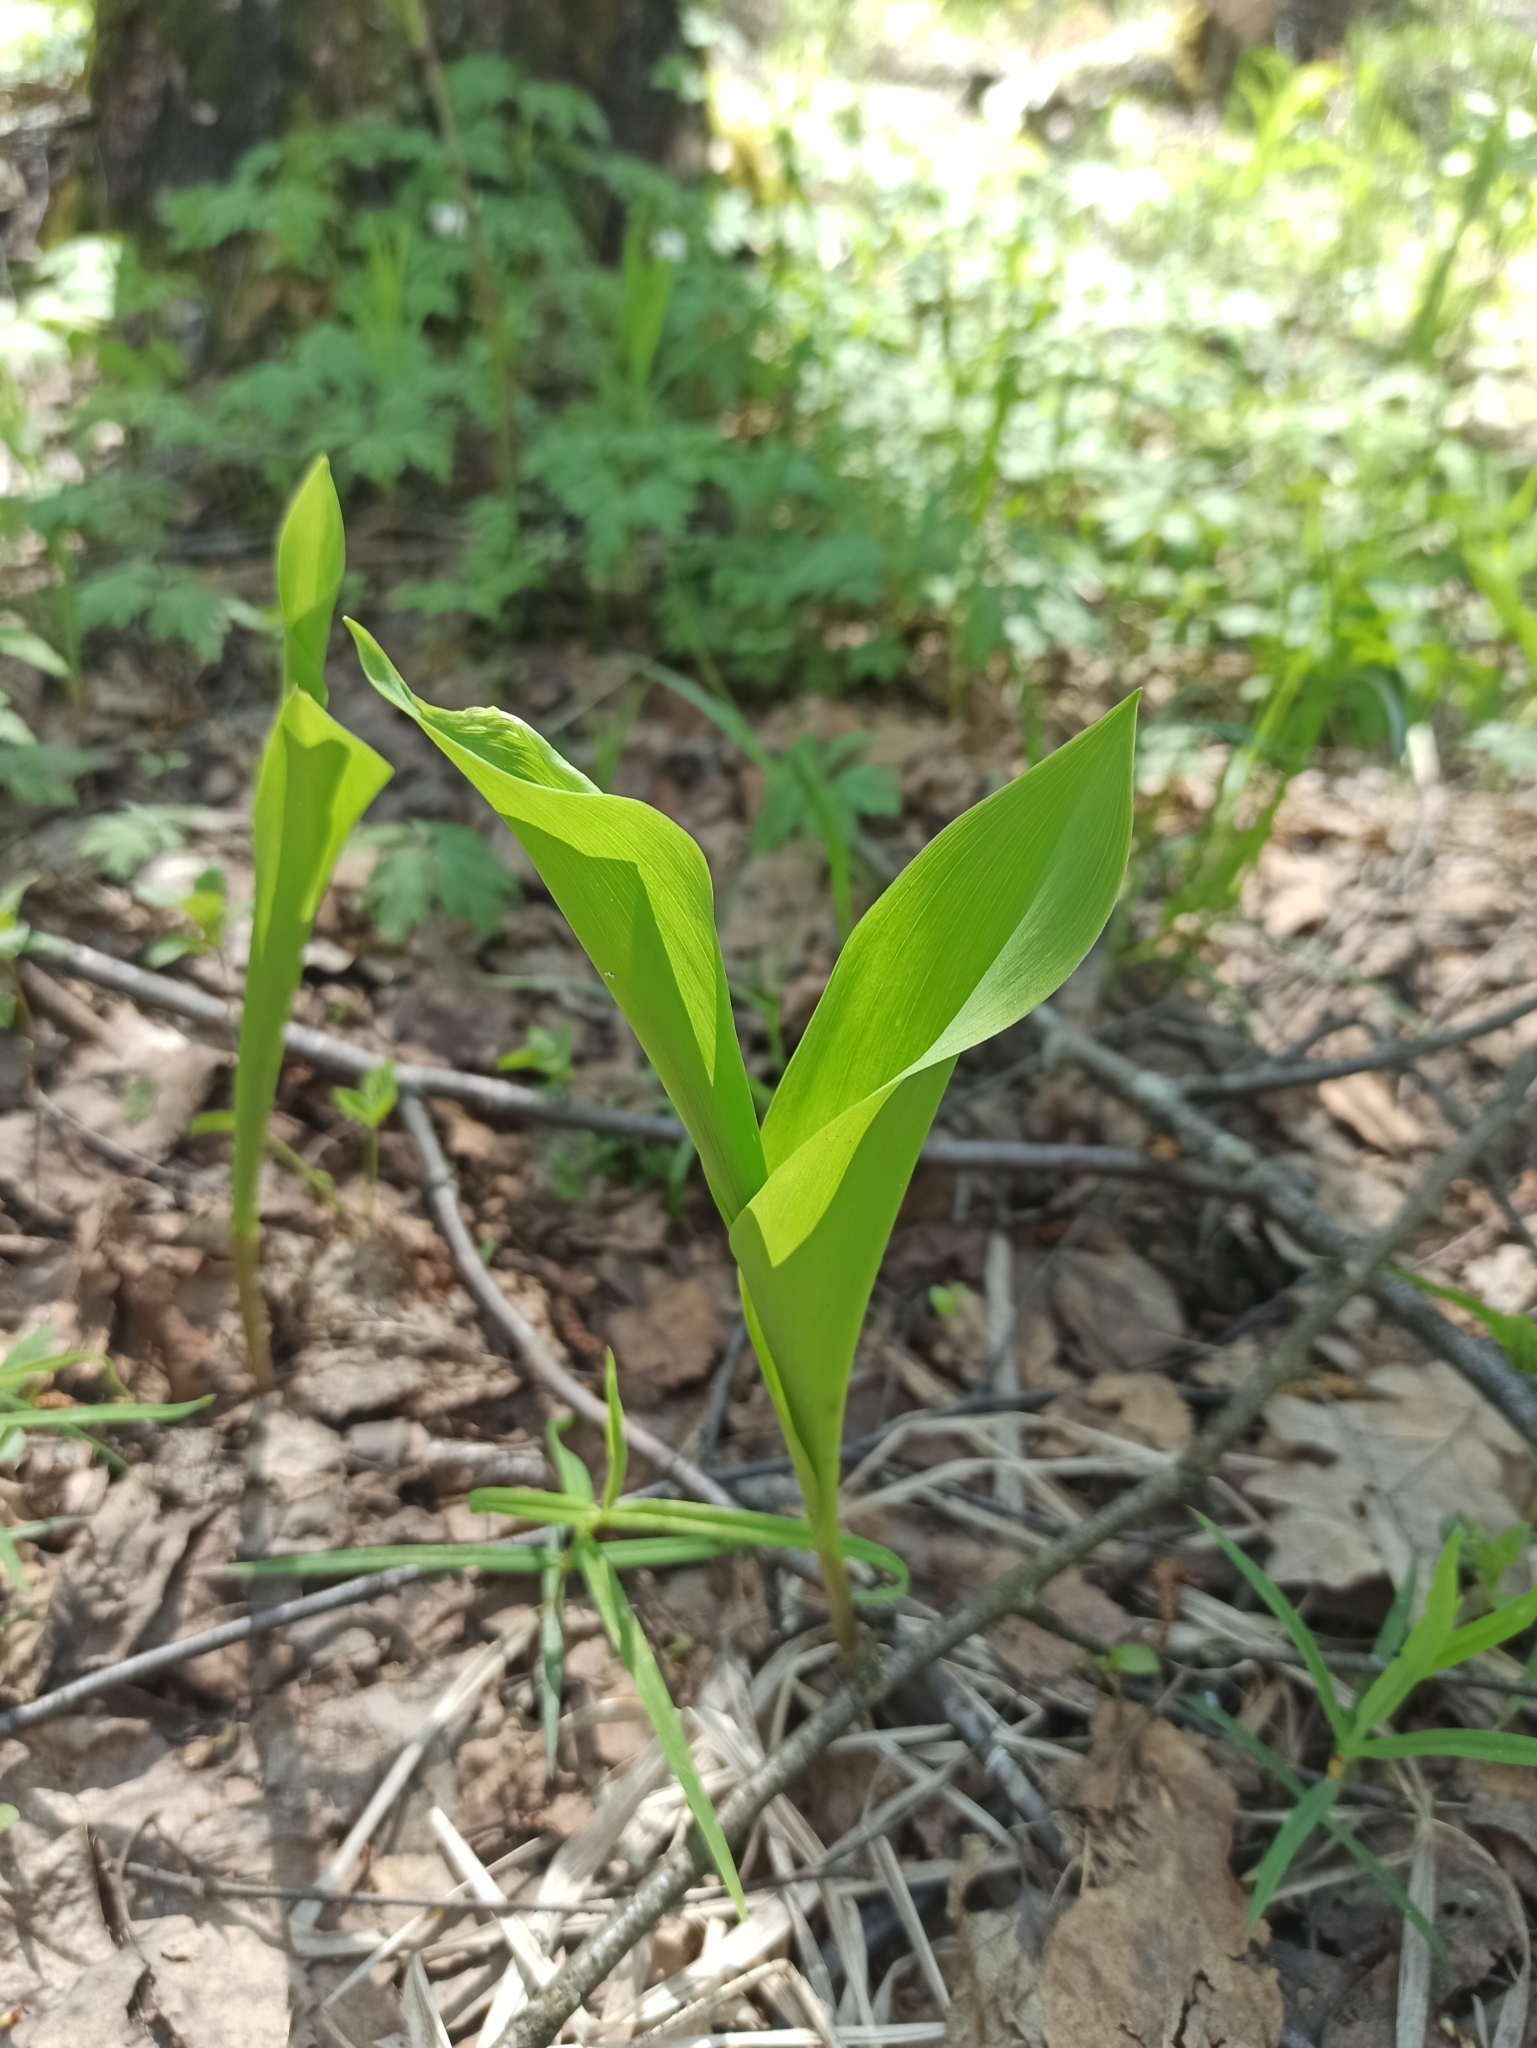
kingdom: Plantae
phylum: Tracheophyta
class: Liliopsida
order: Asparagales
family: Asparagaceae
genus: Convallaria
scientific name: Convallaria majalis
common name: Lily-of-the-valley
